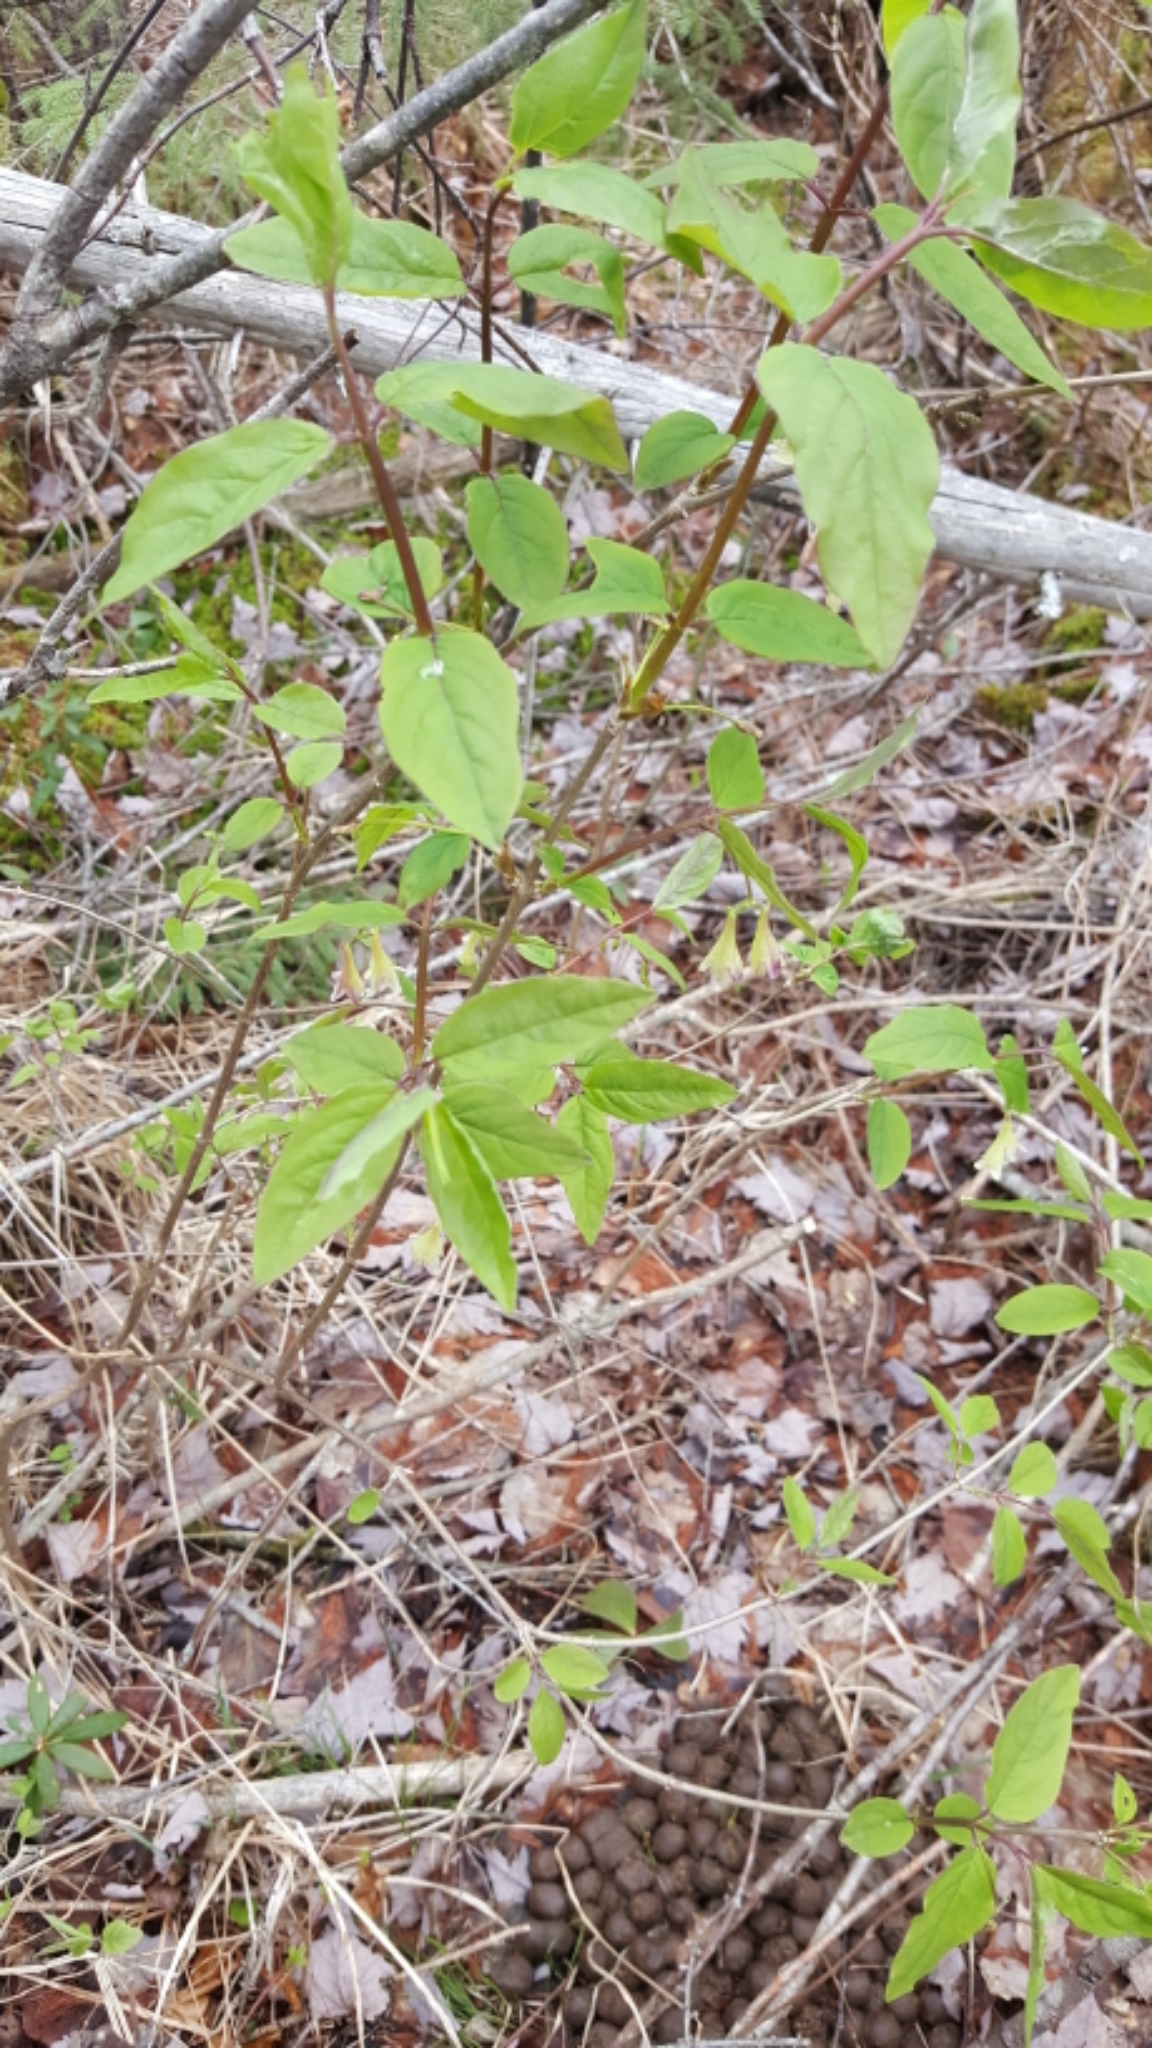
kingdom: Plantae
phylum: Tracheophyta
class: Magnoliopsida
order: Dipsacales
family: Caprifoliaceae
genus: Lonicera
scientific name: Lonicera canadensis
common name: American fly-honeysuckle
